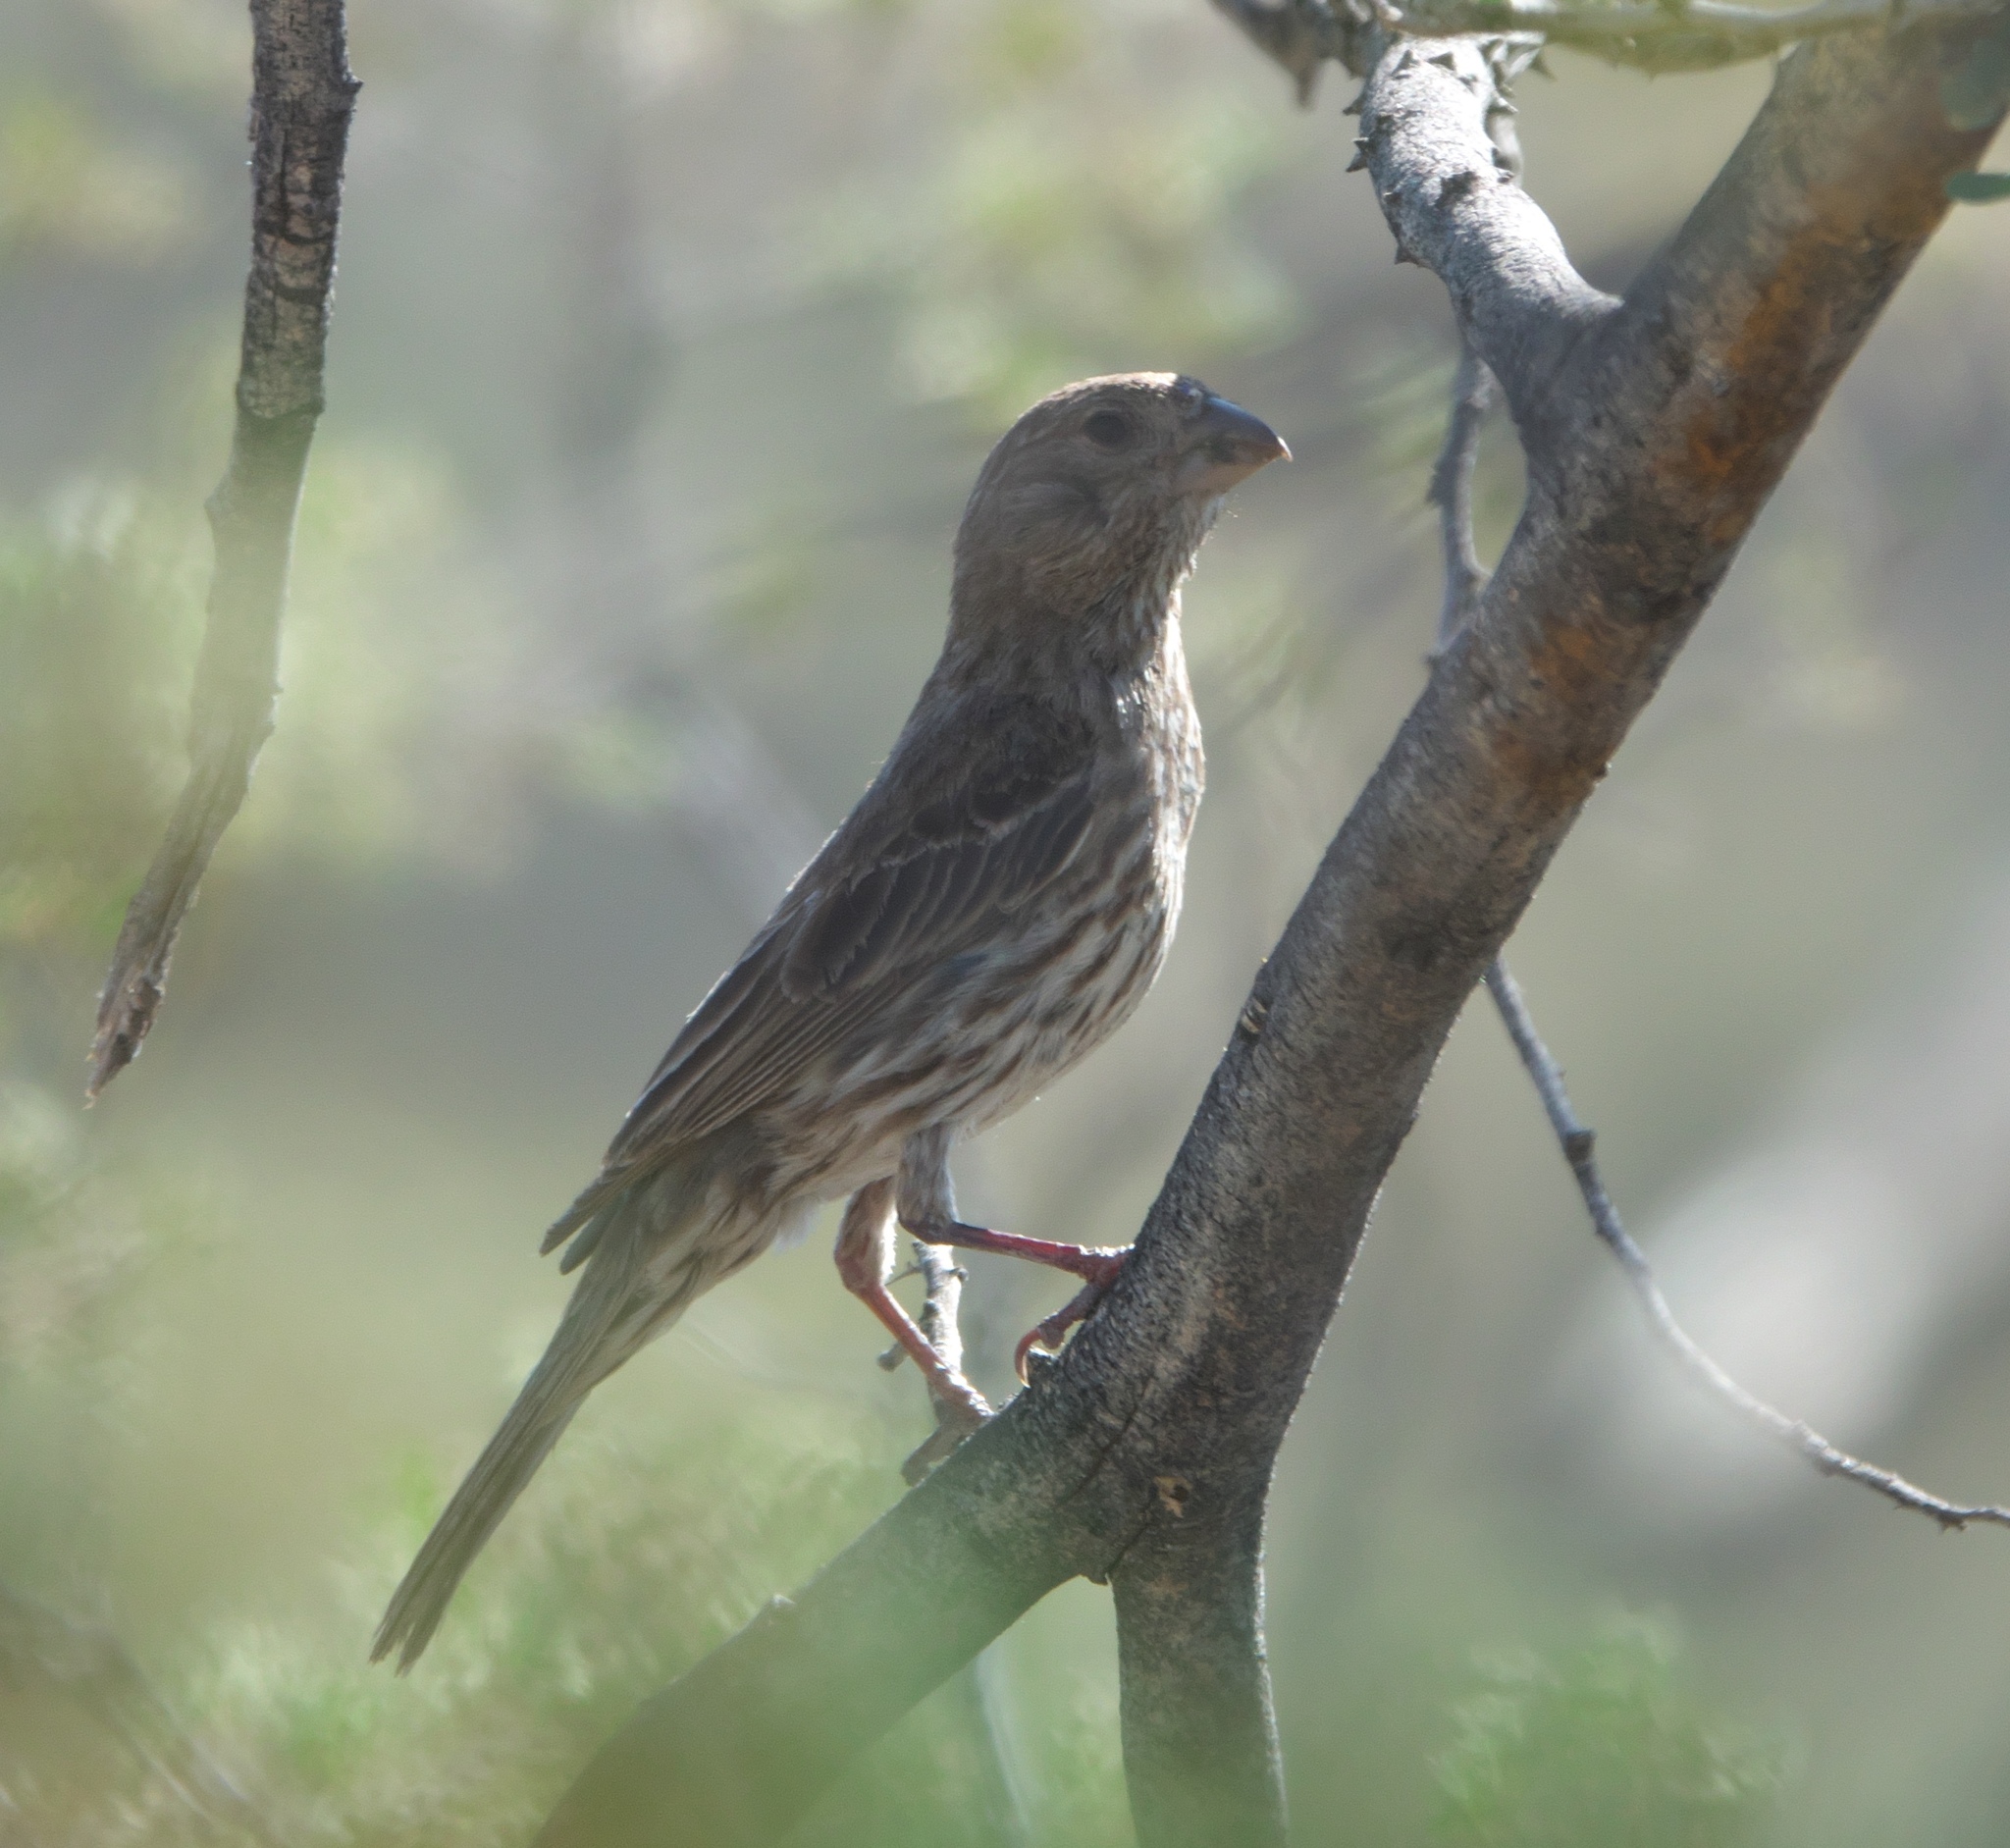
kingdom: Animalia
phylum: Chordata
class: Aves
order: Passeriformes
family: Fringillidae
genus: Haemorhous
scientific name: Haemorhous mexicanus
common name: House finch
